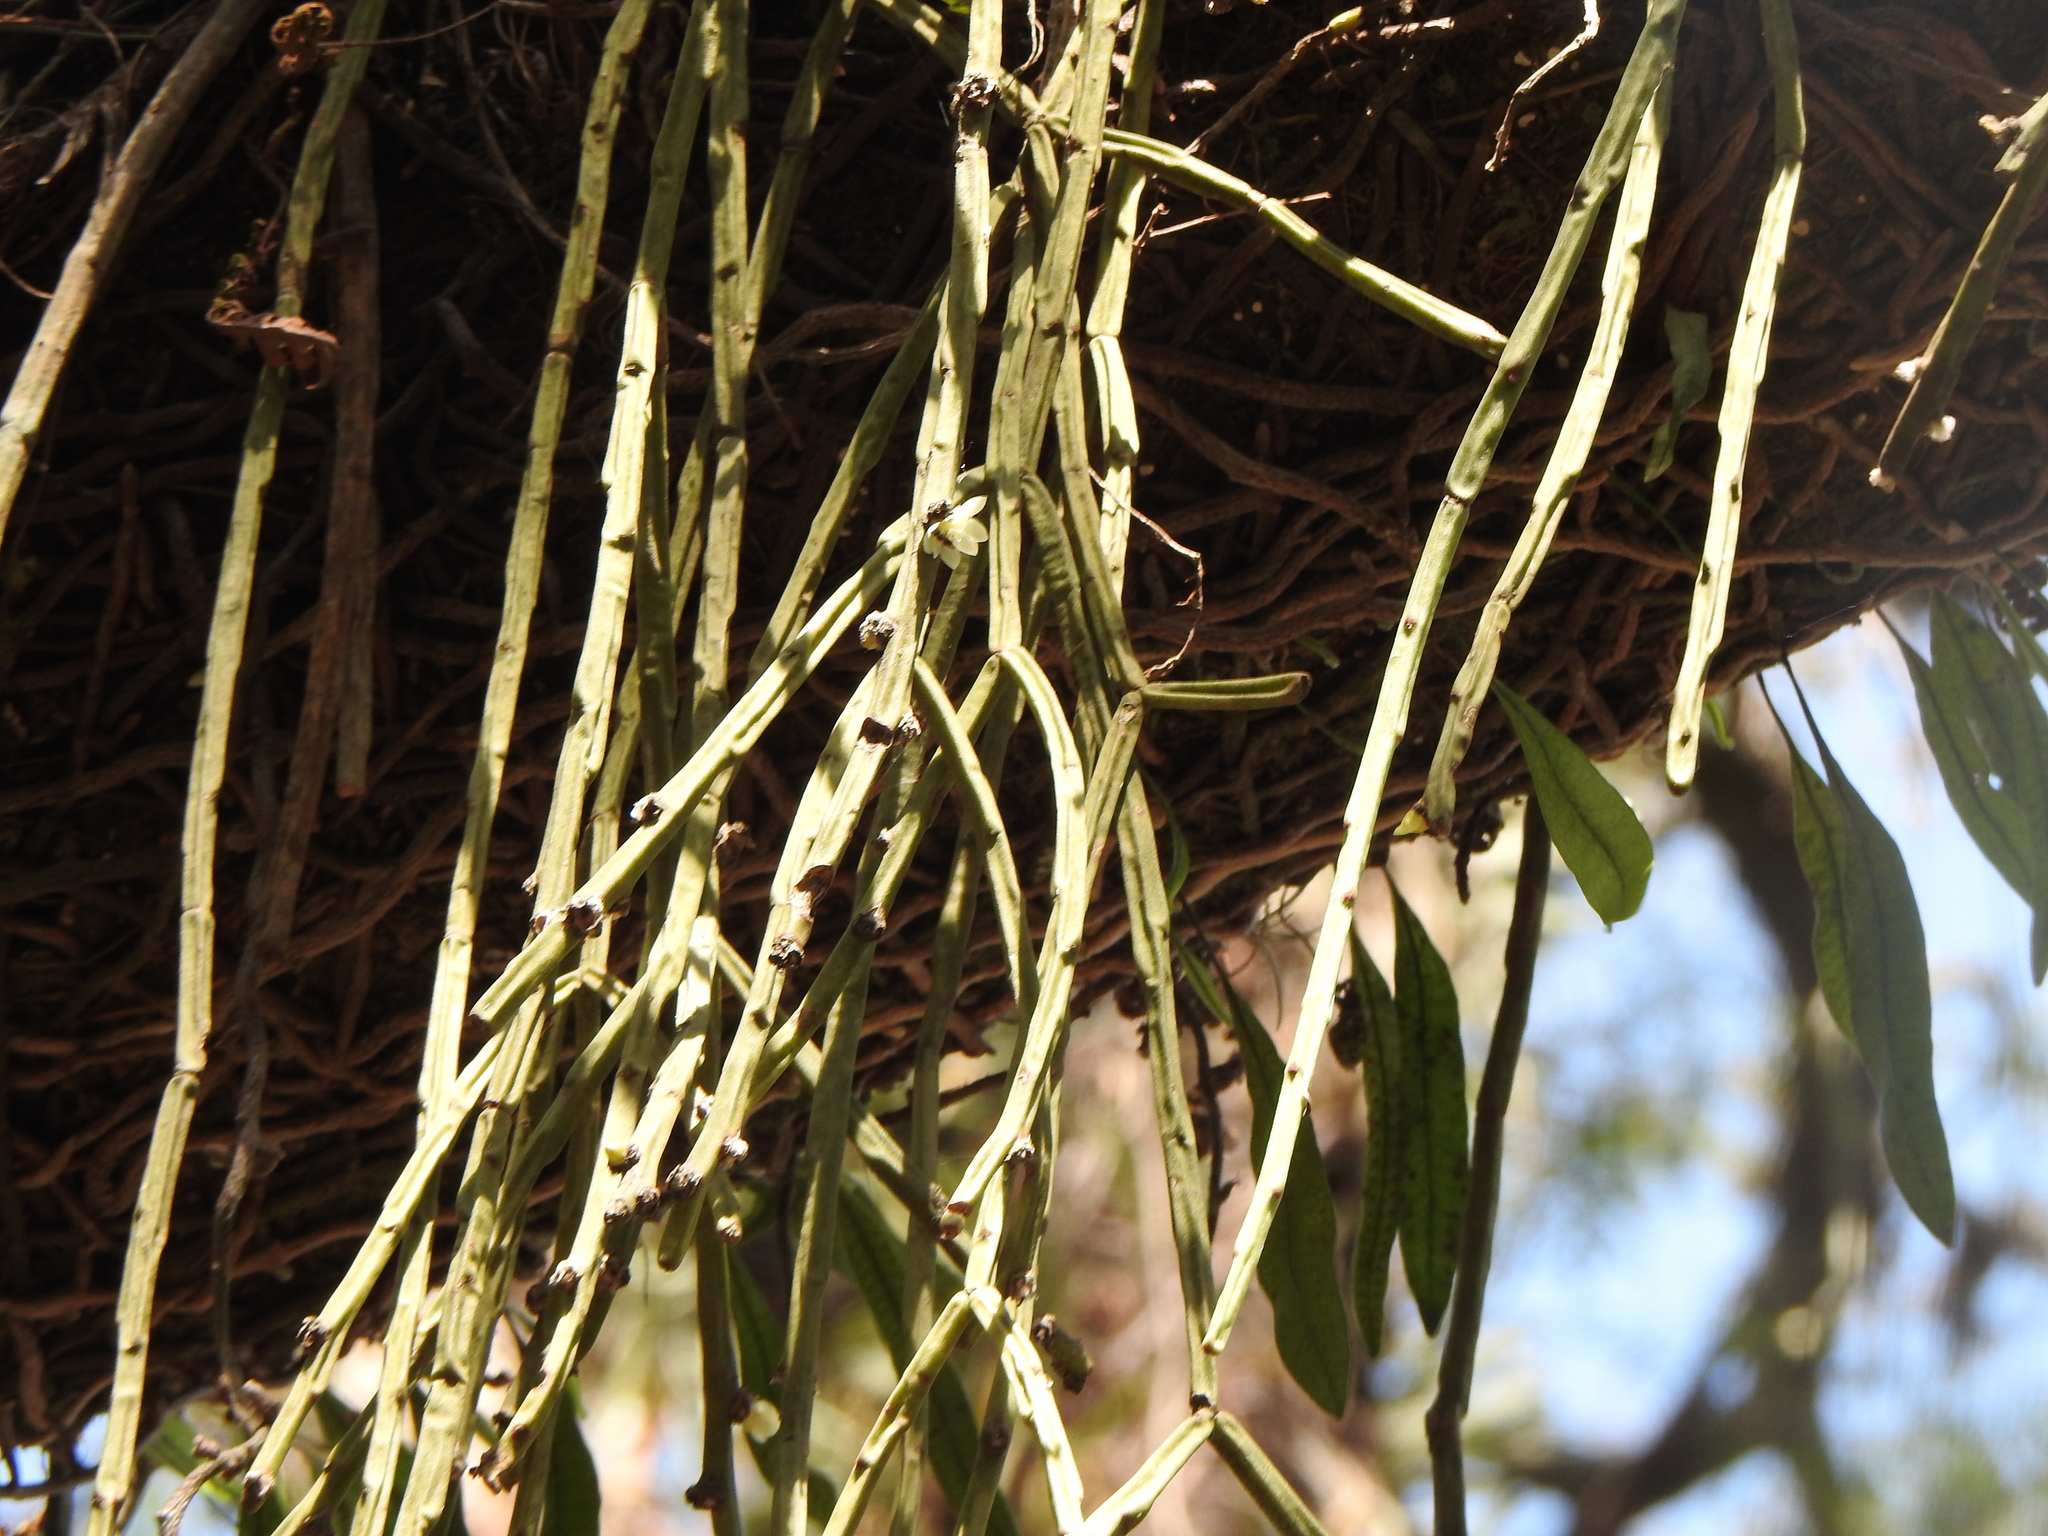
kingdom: Plantae
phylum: Tracheophyta
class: Magnoliopsida
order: Caryophyllales
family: Cactaceae
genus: Rhipsalis
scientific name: Rhipsalis floccosa
